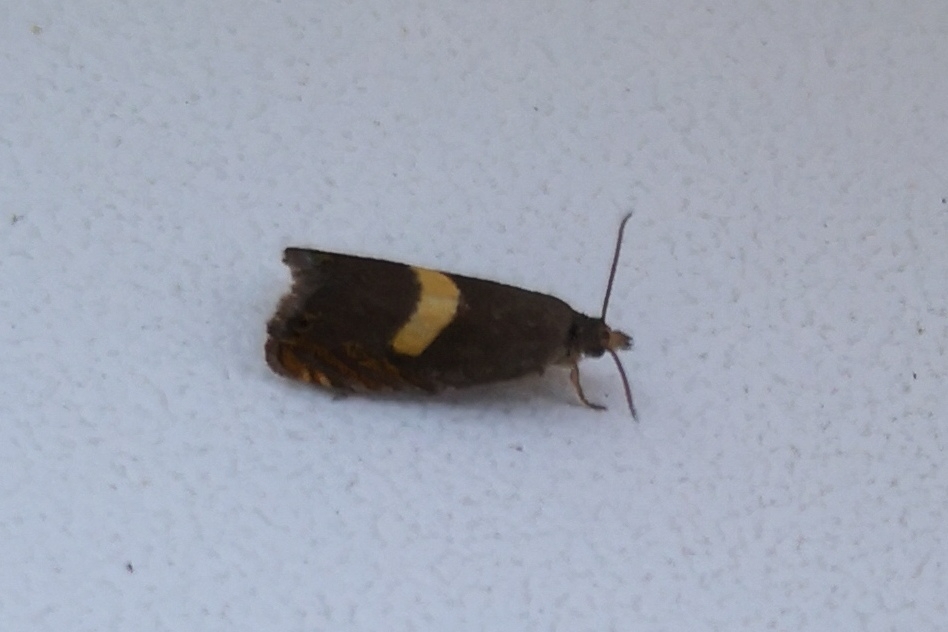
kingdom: Animalia
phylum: Arthropoda
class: Insecta
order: Lepidoptera
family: Tortricidae
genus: Dichrorampha
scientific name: Dichrorampha petiverella
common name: Common drill
